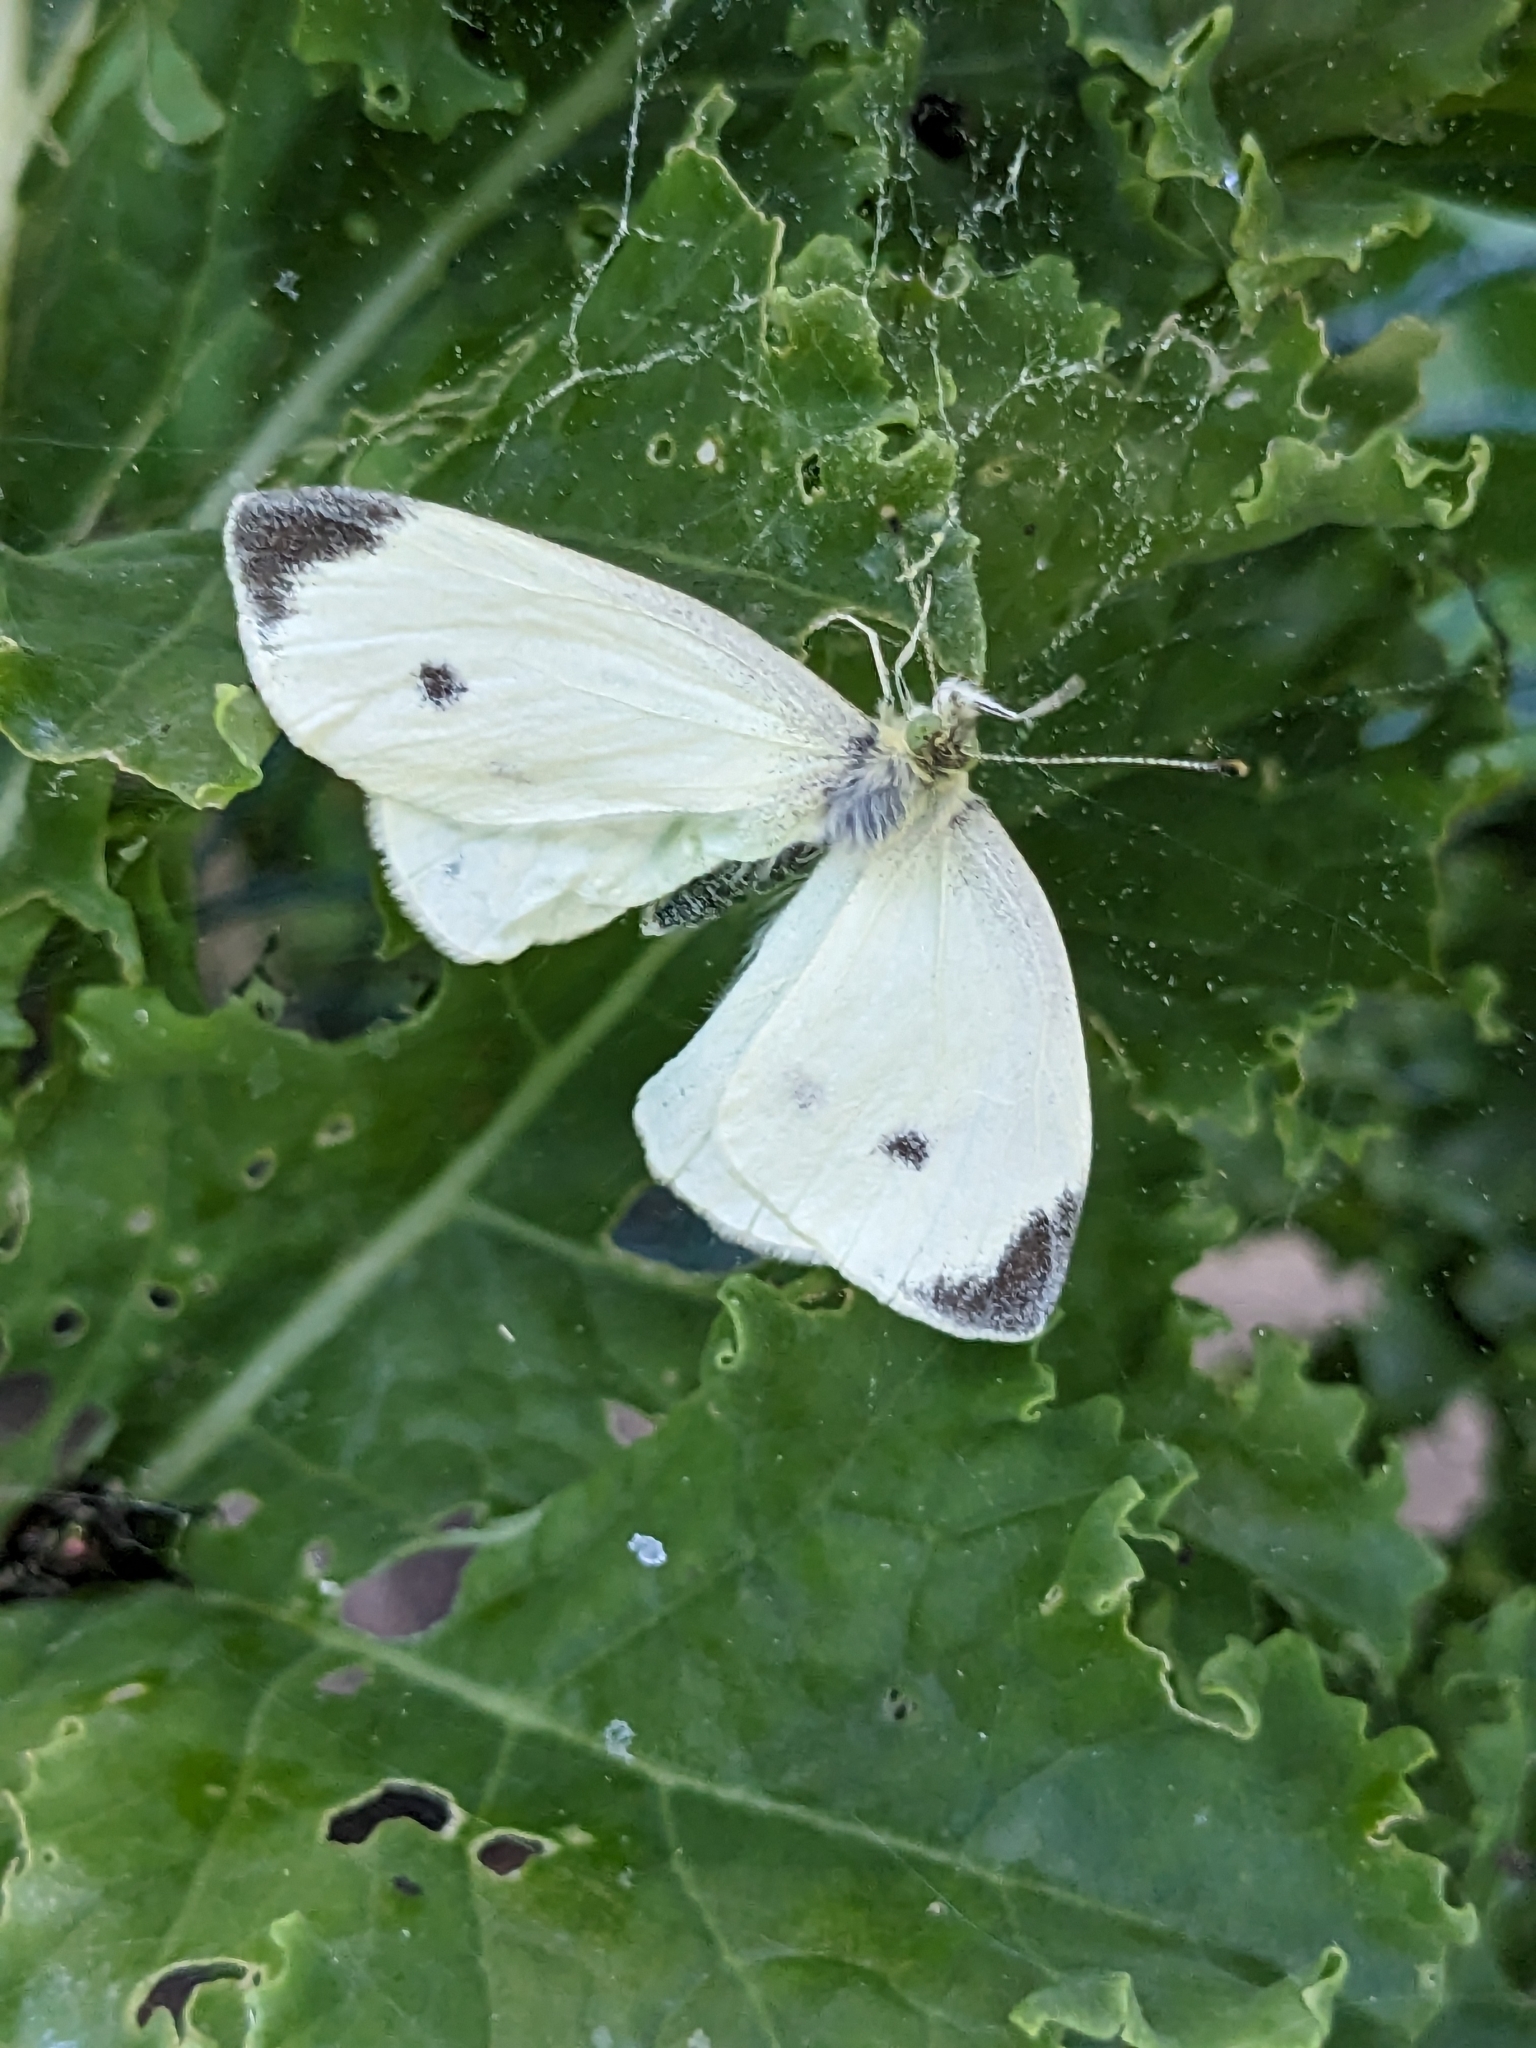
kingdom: Animalia
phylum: Arthropoda
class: Insecta
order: Lepidoptera
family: Pieridae
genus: Pieris
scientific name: Pieris rapae
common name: Small white
